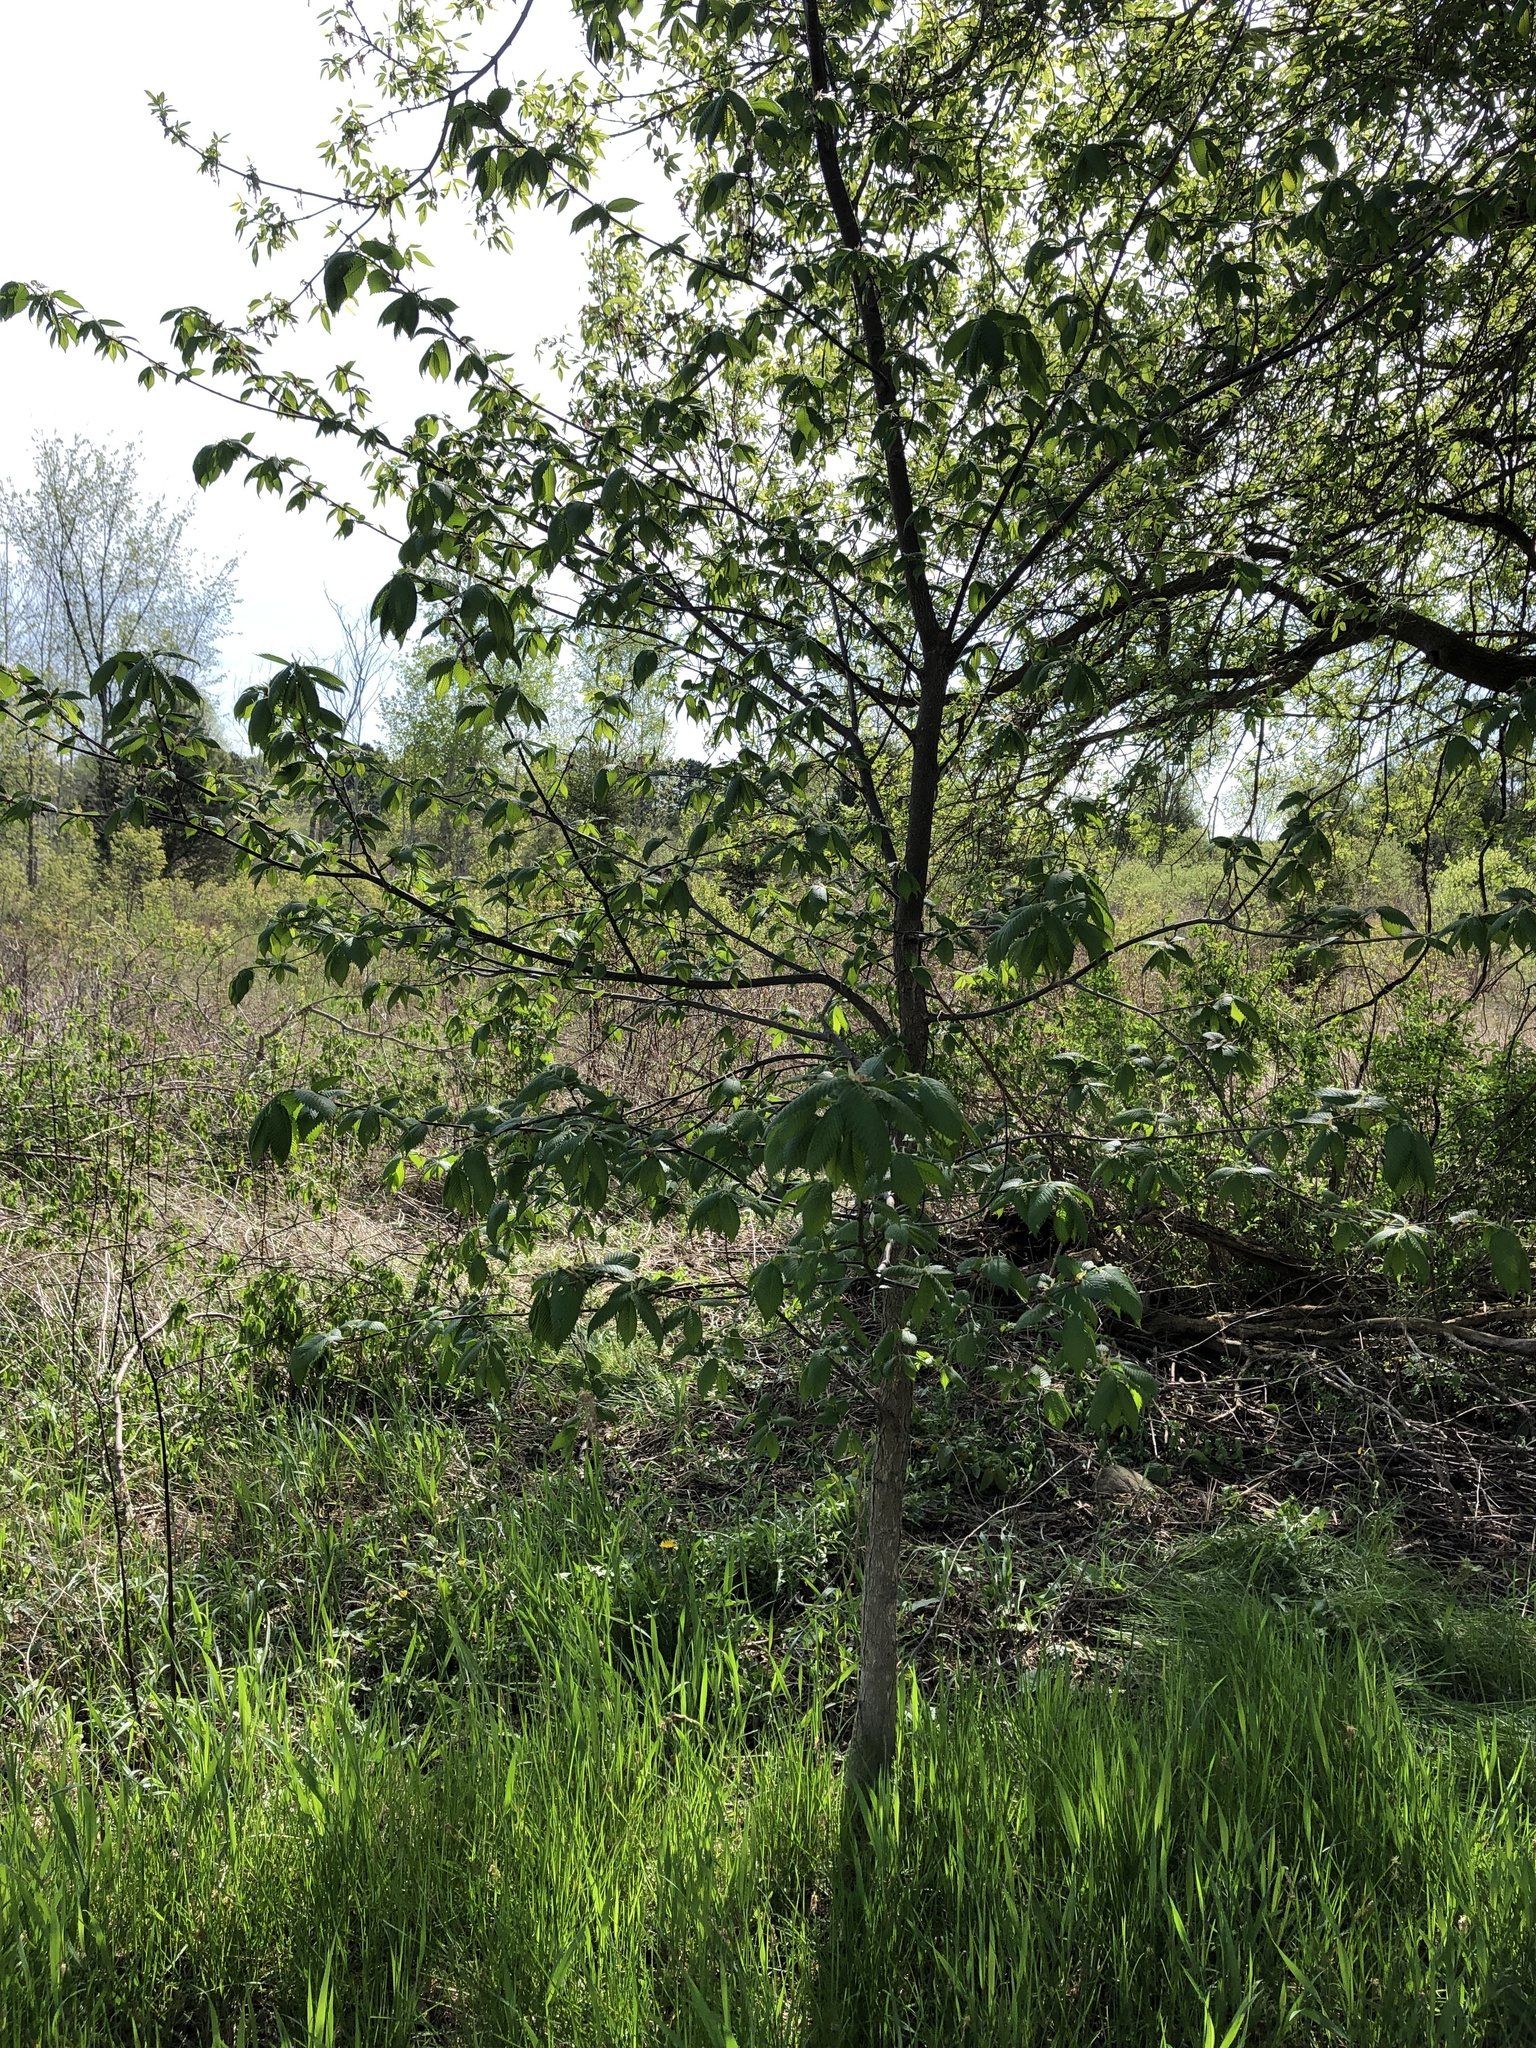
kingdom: Plantae
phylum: Tracheophyta
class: Magnoliopsida
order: Rosales
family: Ulmaceae
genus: Ulmus
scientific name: Ulmus americana
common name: American elm
